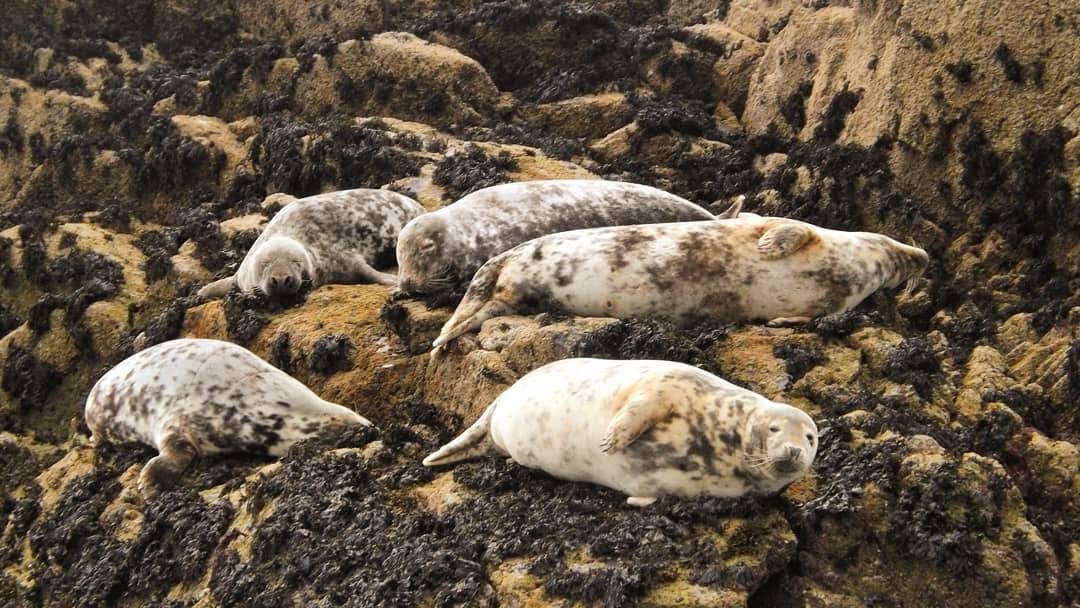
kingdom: Animalia
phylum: Chordata
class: Mammalia
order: Carnivora
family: Phocidae
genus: Halichoerus
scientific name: Halichoerus grypus
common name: Grey seal
